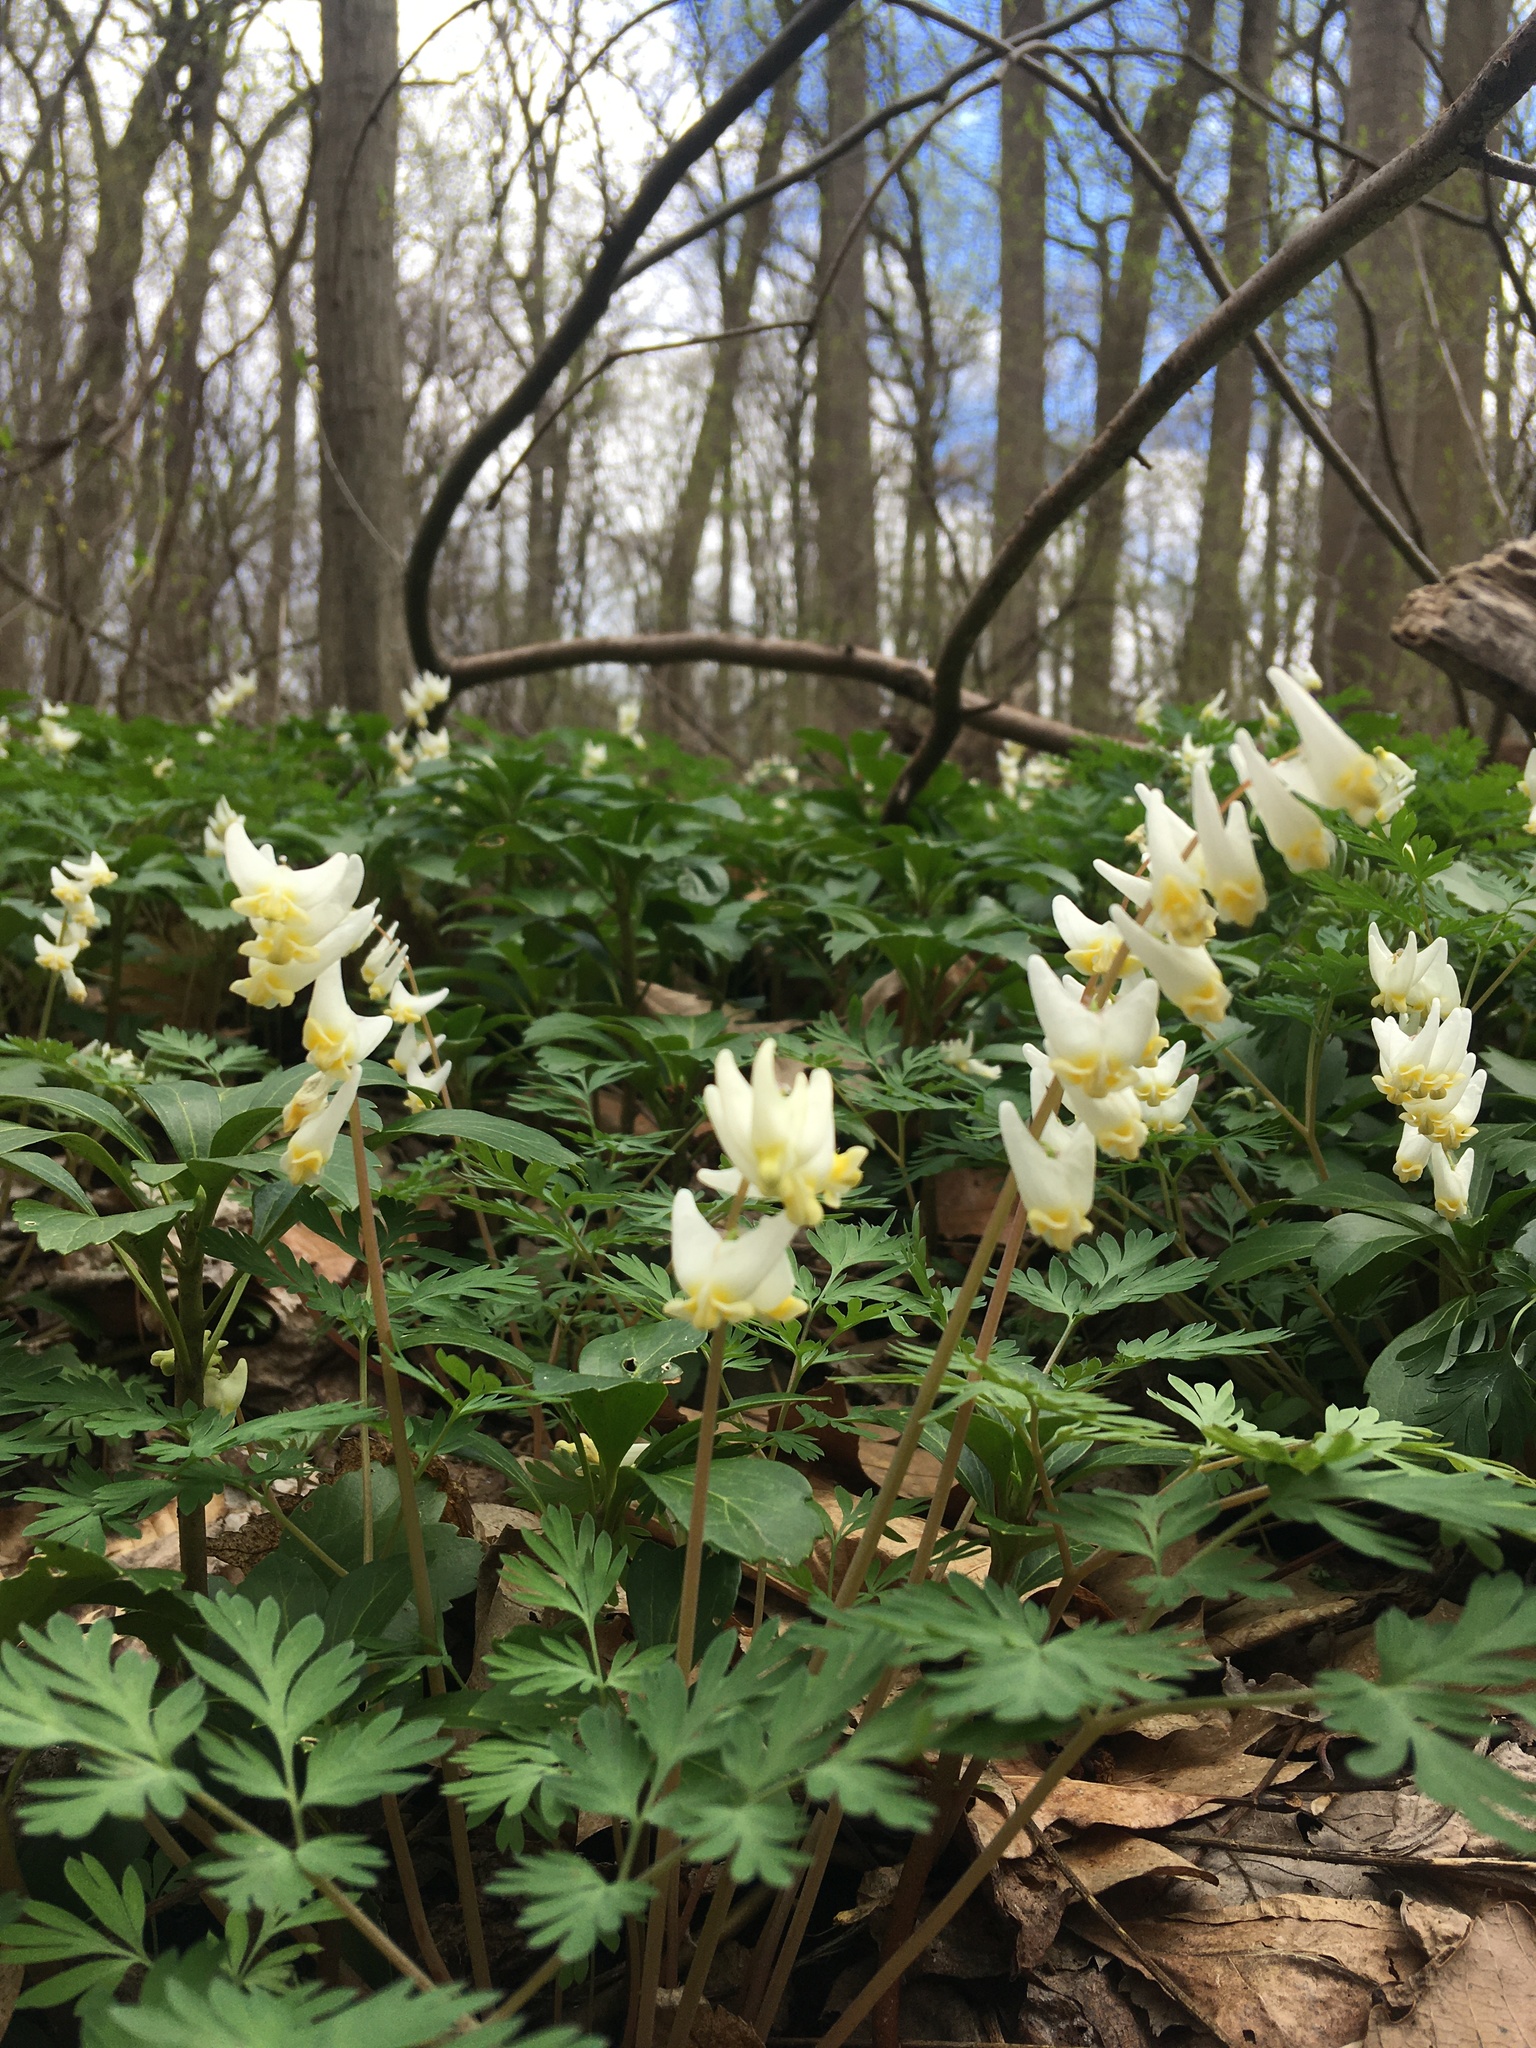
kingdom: Plantae
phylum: Tracheophyta
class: Magnoliopsida
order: Ranunculales
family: Papaveraceae
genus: Dicentra
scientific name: Dicentra cucullaria
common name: Dutchman's breeches
